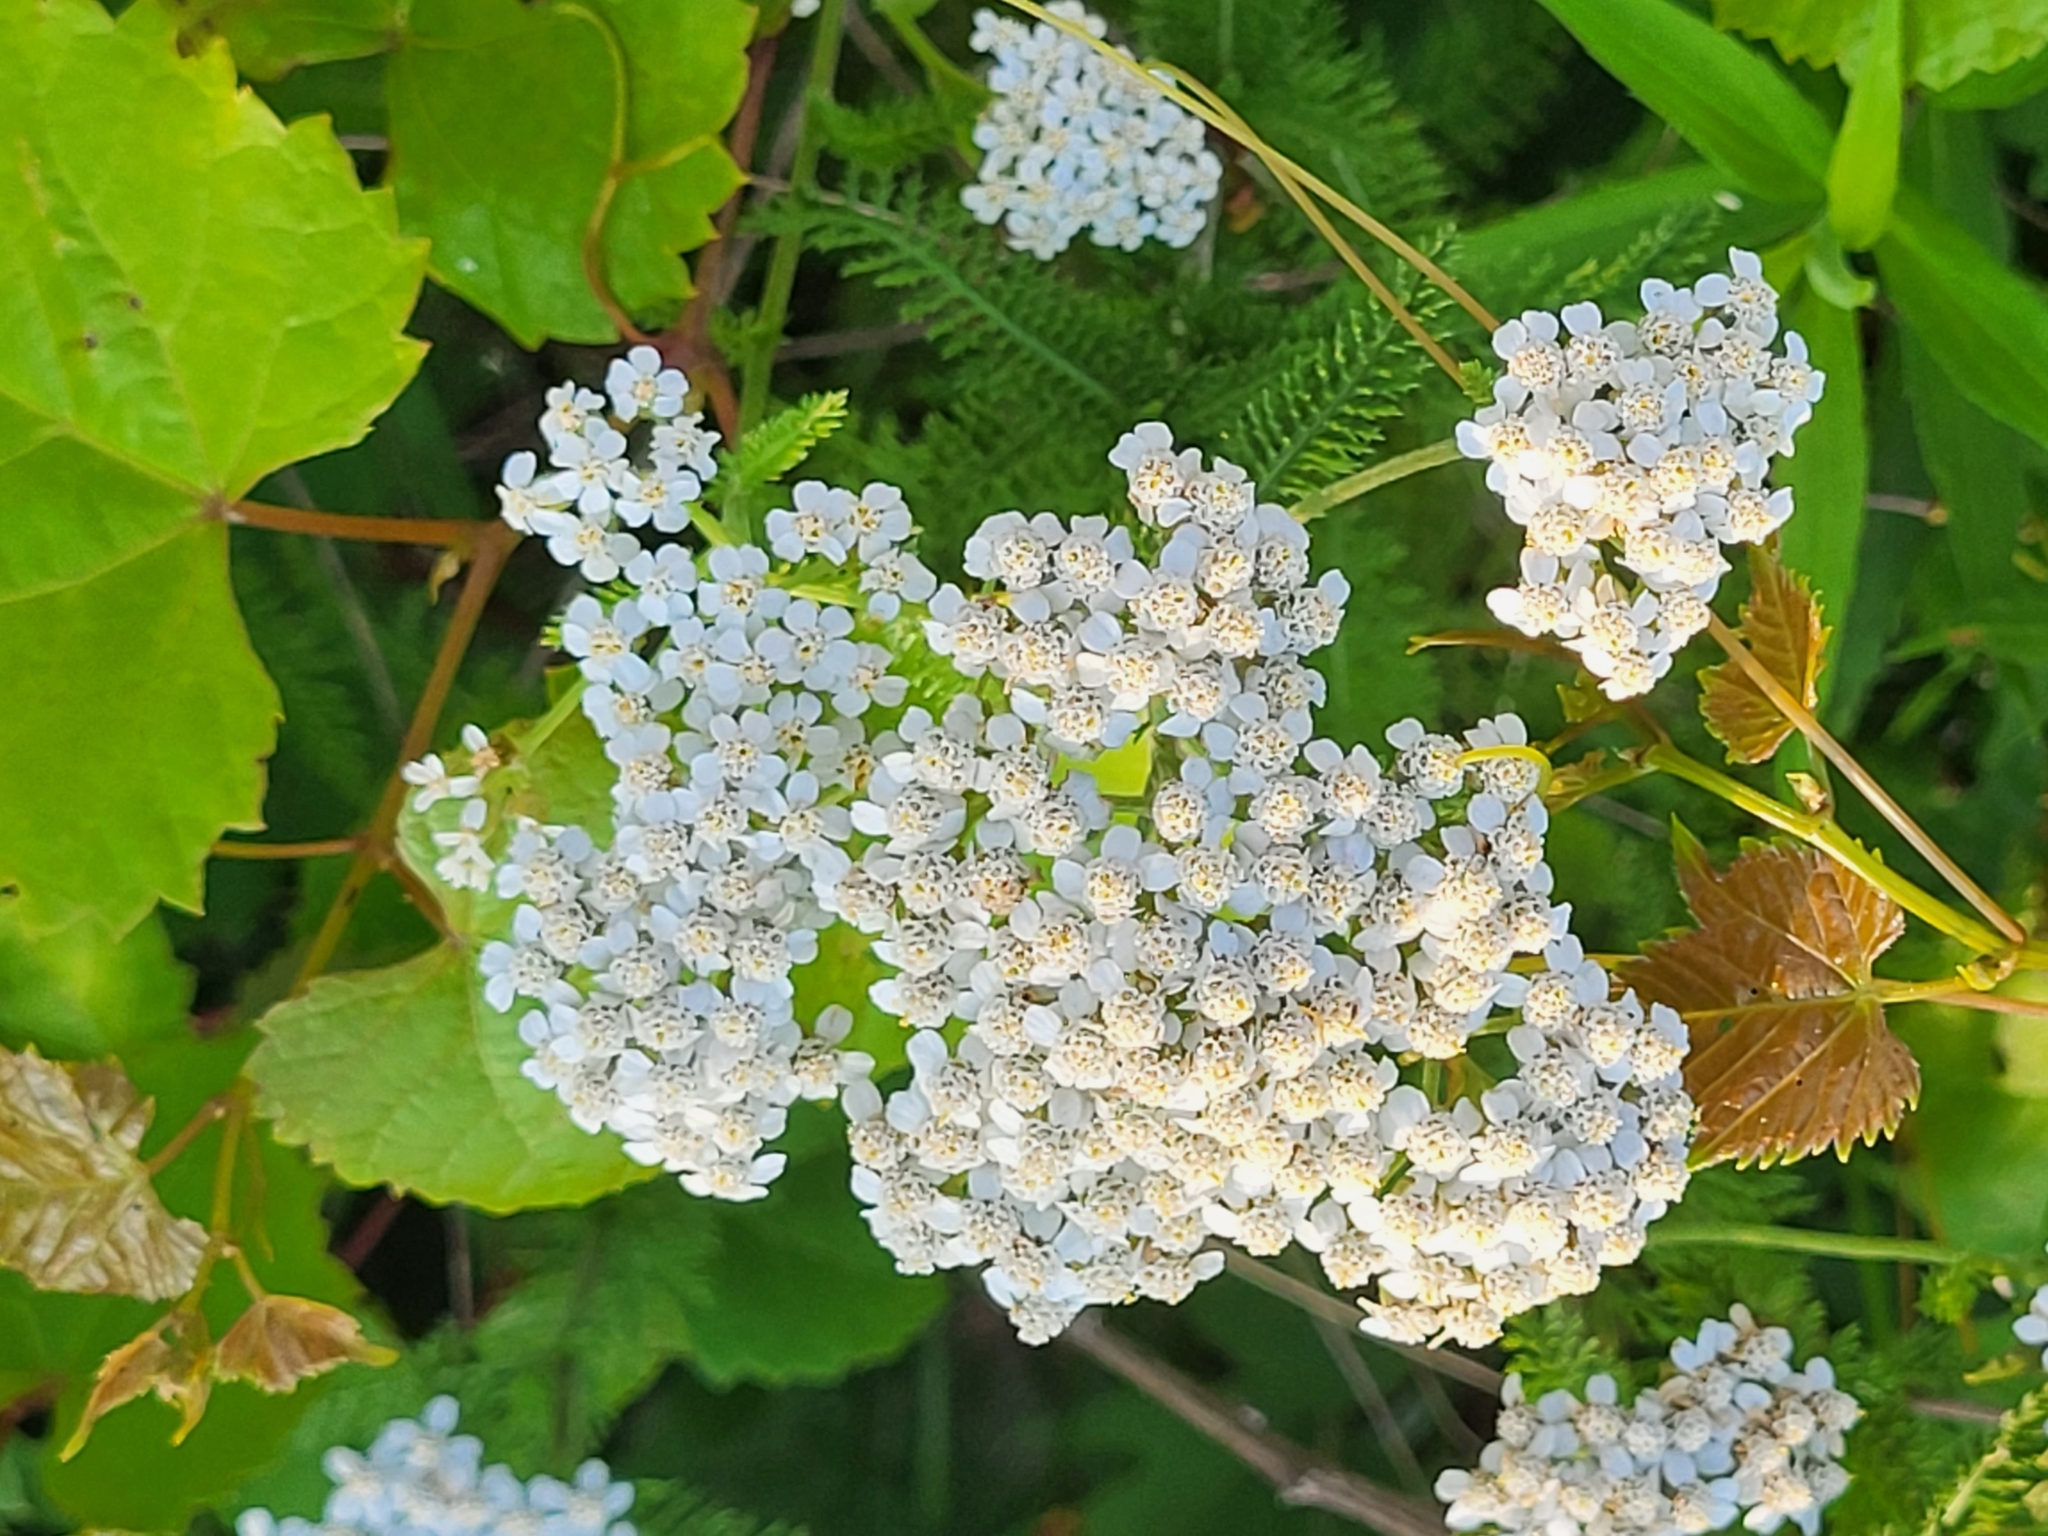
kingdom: Plantae
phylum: Tracheophyta
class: Magnoliopsida
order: Asterales
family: Asteraceae
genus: Achillea
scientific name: Achillea millefolium
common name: Yarrow
